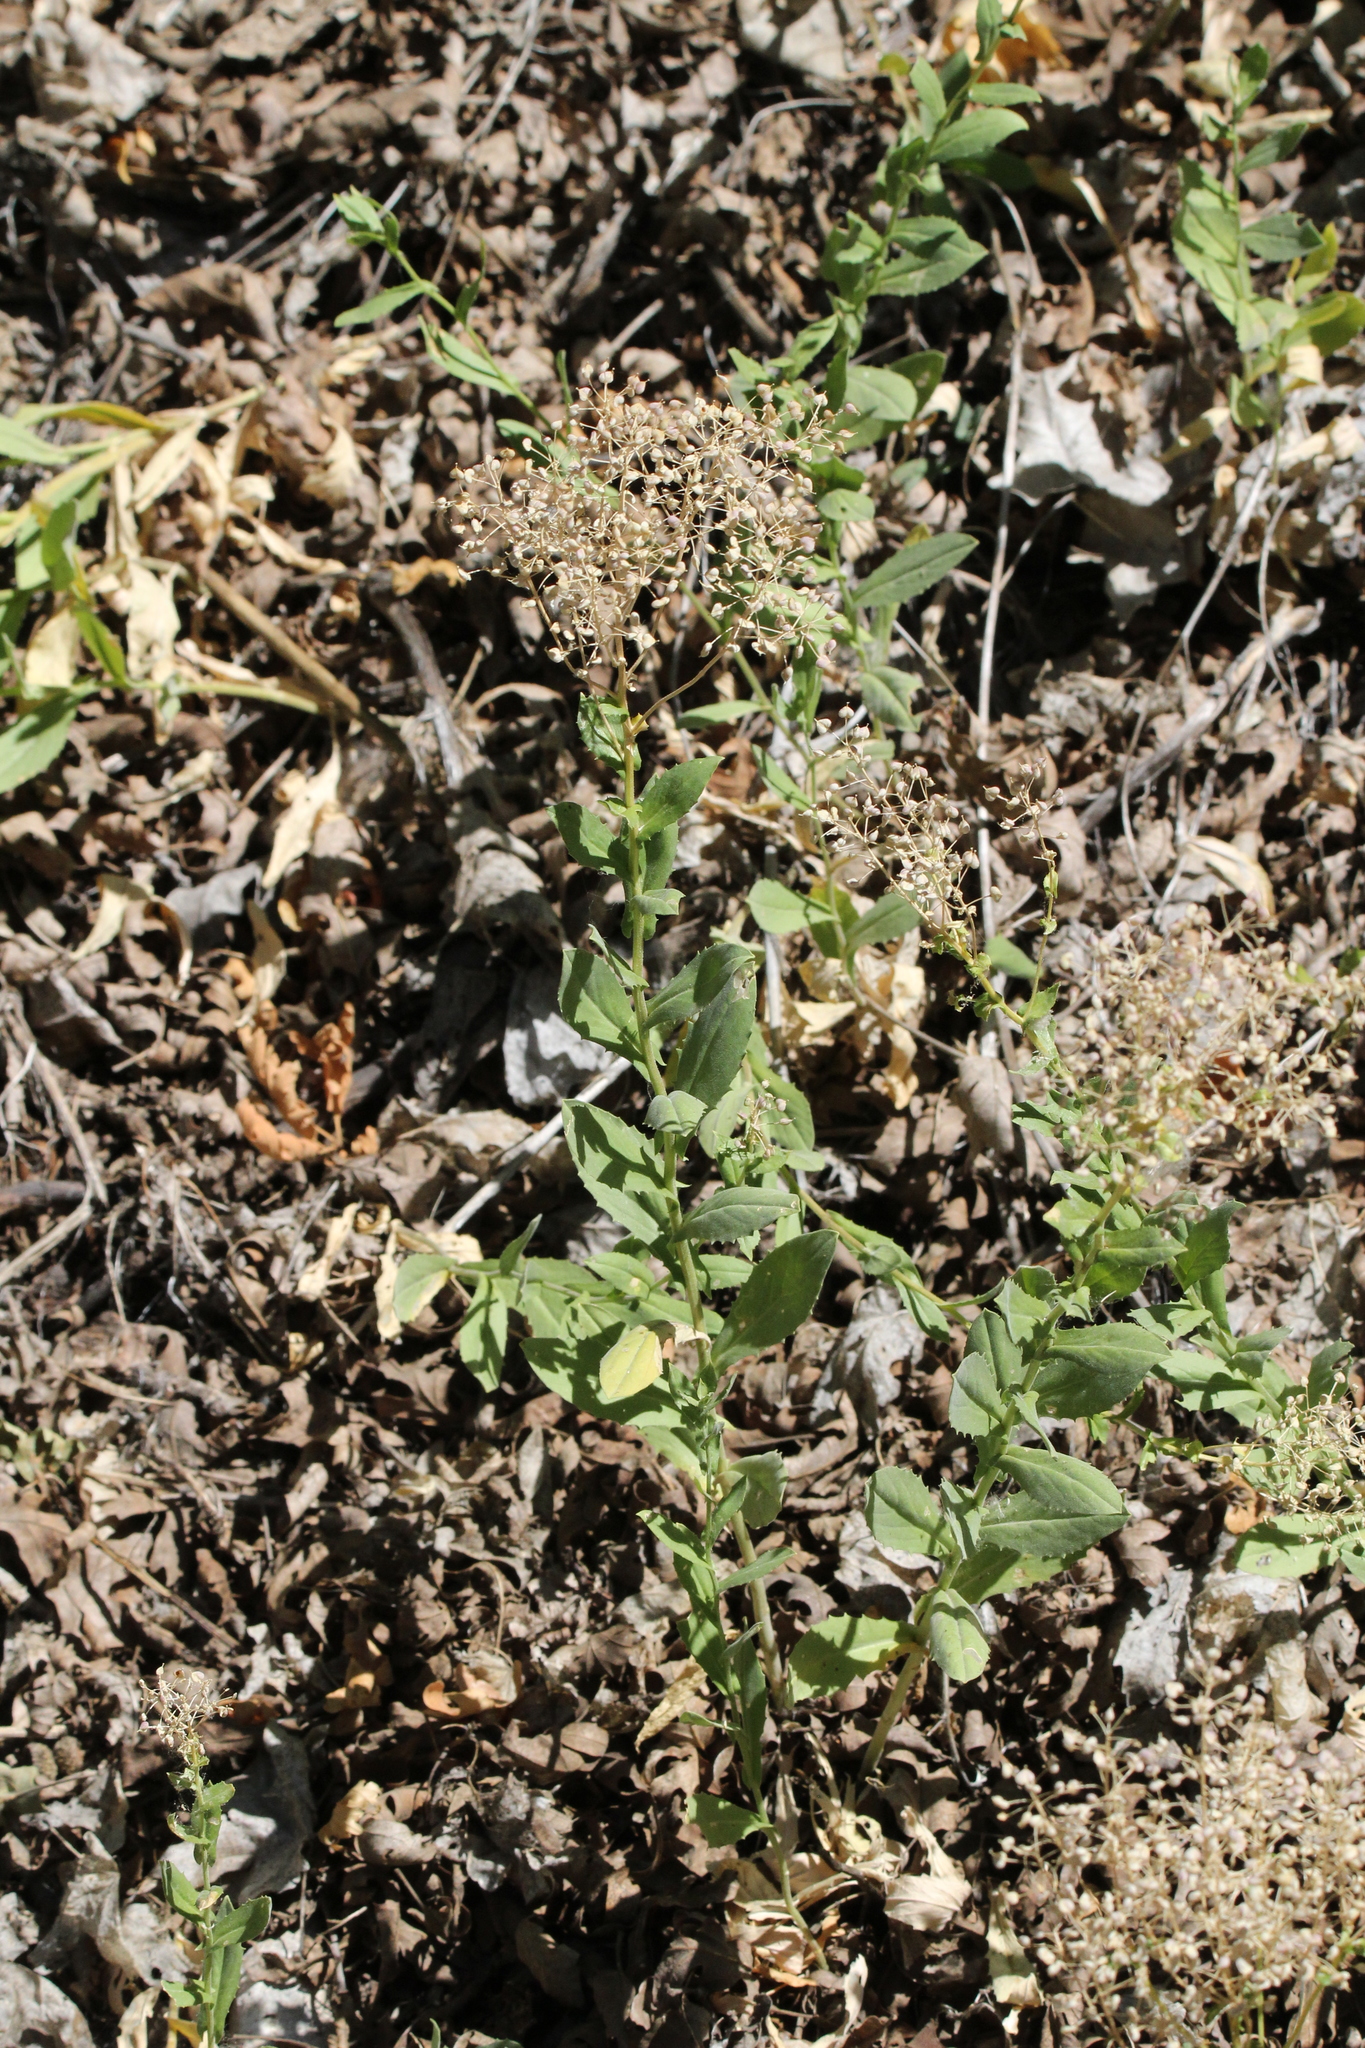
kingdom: Plantae
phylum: Tracheophyta
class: Magnoliopsida
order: Brassicales
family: Brassicaceae
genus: Lepidium
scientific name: Lepidium draba
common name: Hoary cress
